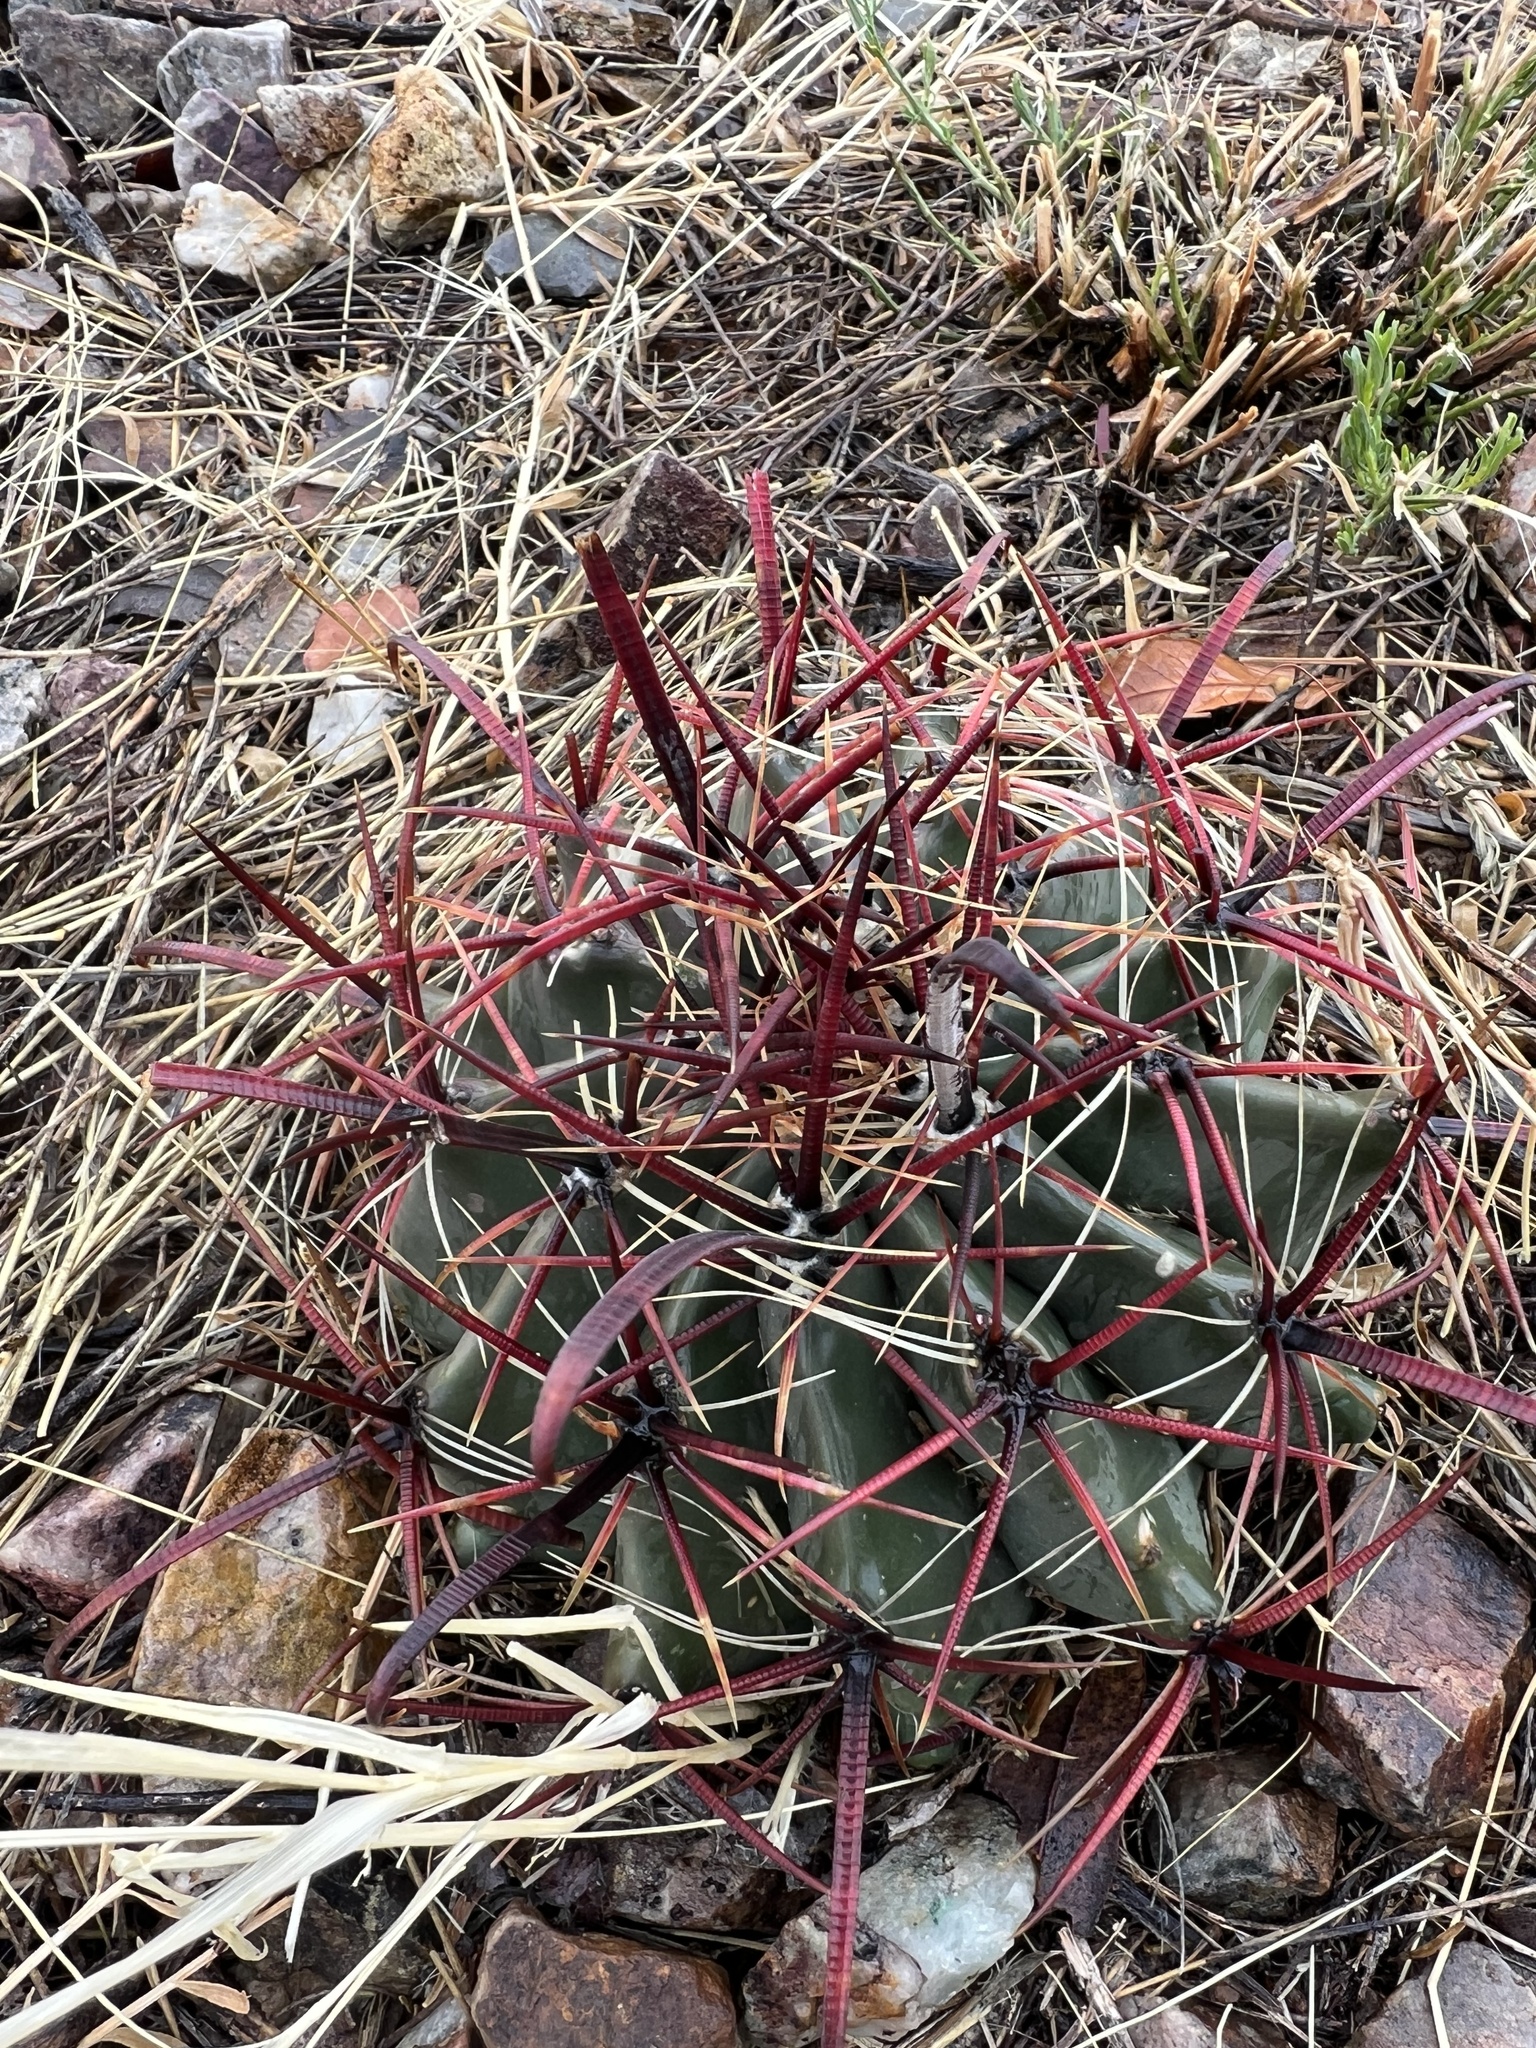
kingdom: Plantae
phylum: Tracheophyta
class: Magnoliopsida
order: Caryophyllales
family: Cactaceae
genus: Ferocactus
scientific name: Ferocactus wislizeni
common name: Candy barrel cactus
